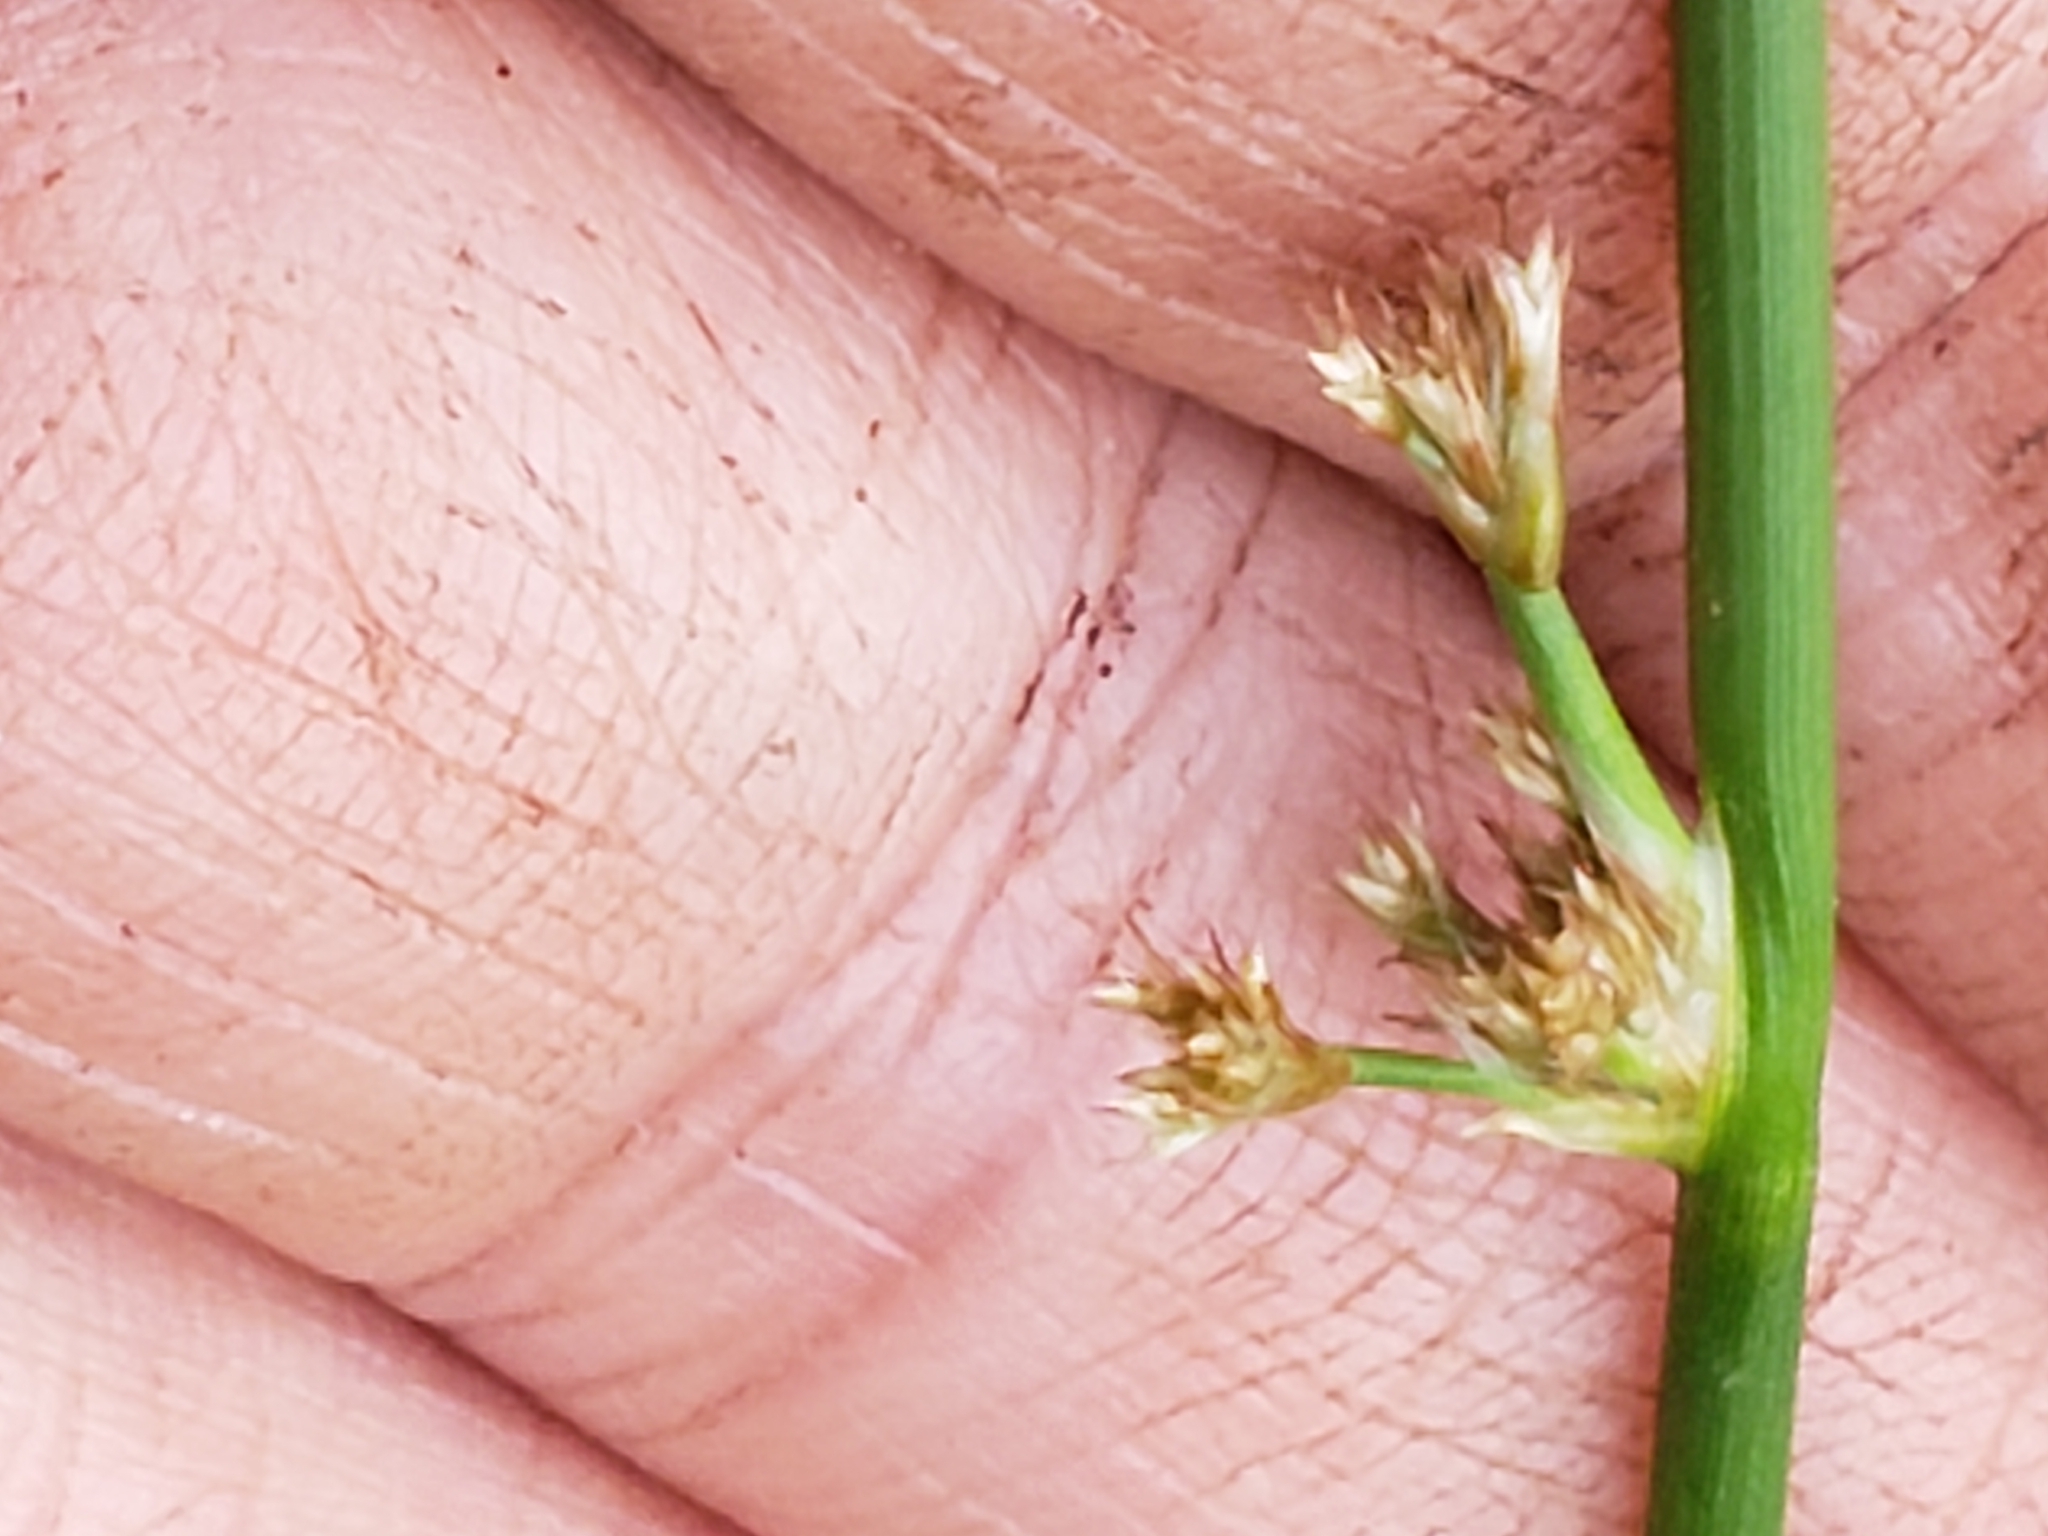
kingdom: Plantae
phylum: Tracheophyta
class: Liliopsida
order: Poales
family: Juncaceae
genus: Juncus
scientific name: Juncus effusus
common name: Soft rush
